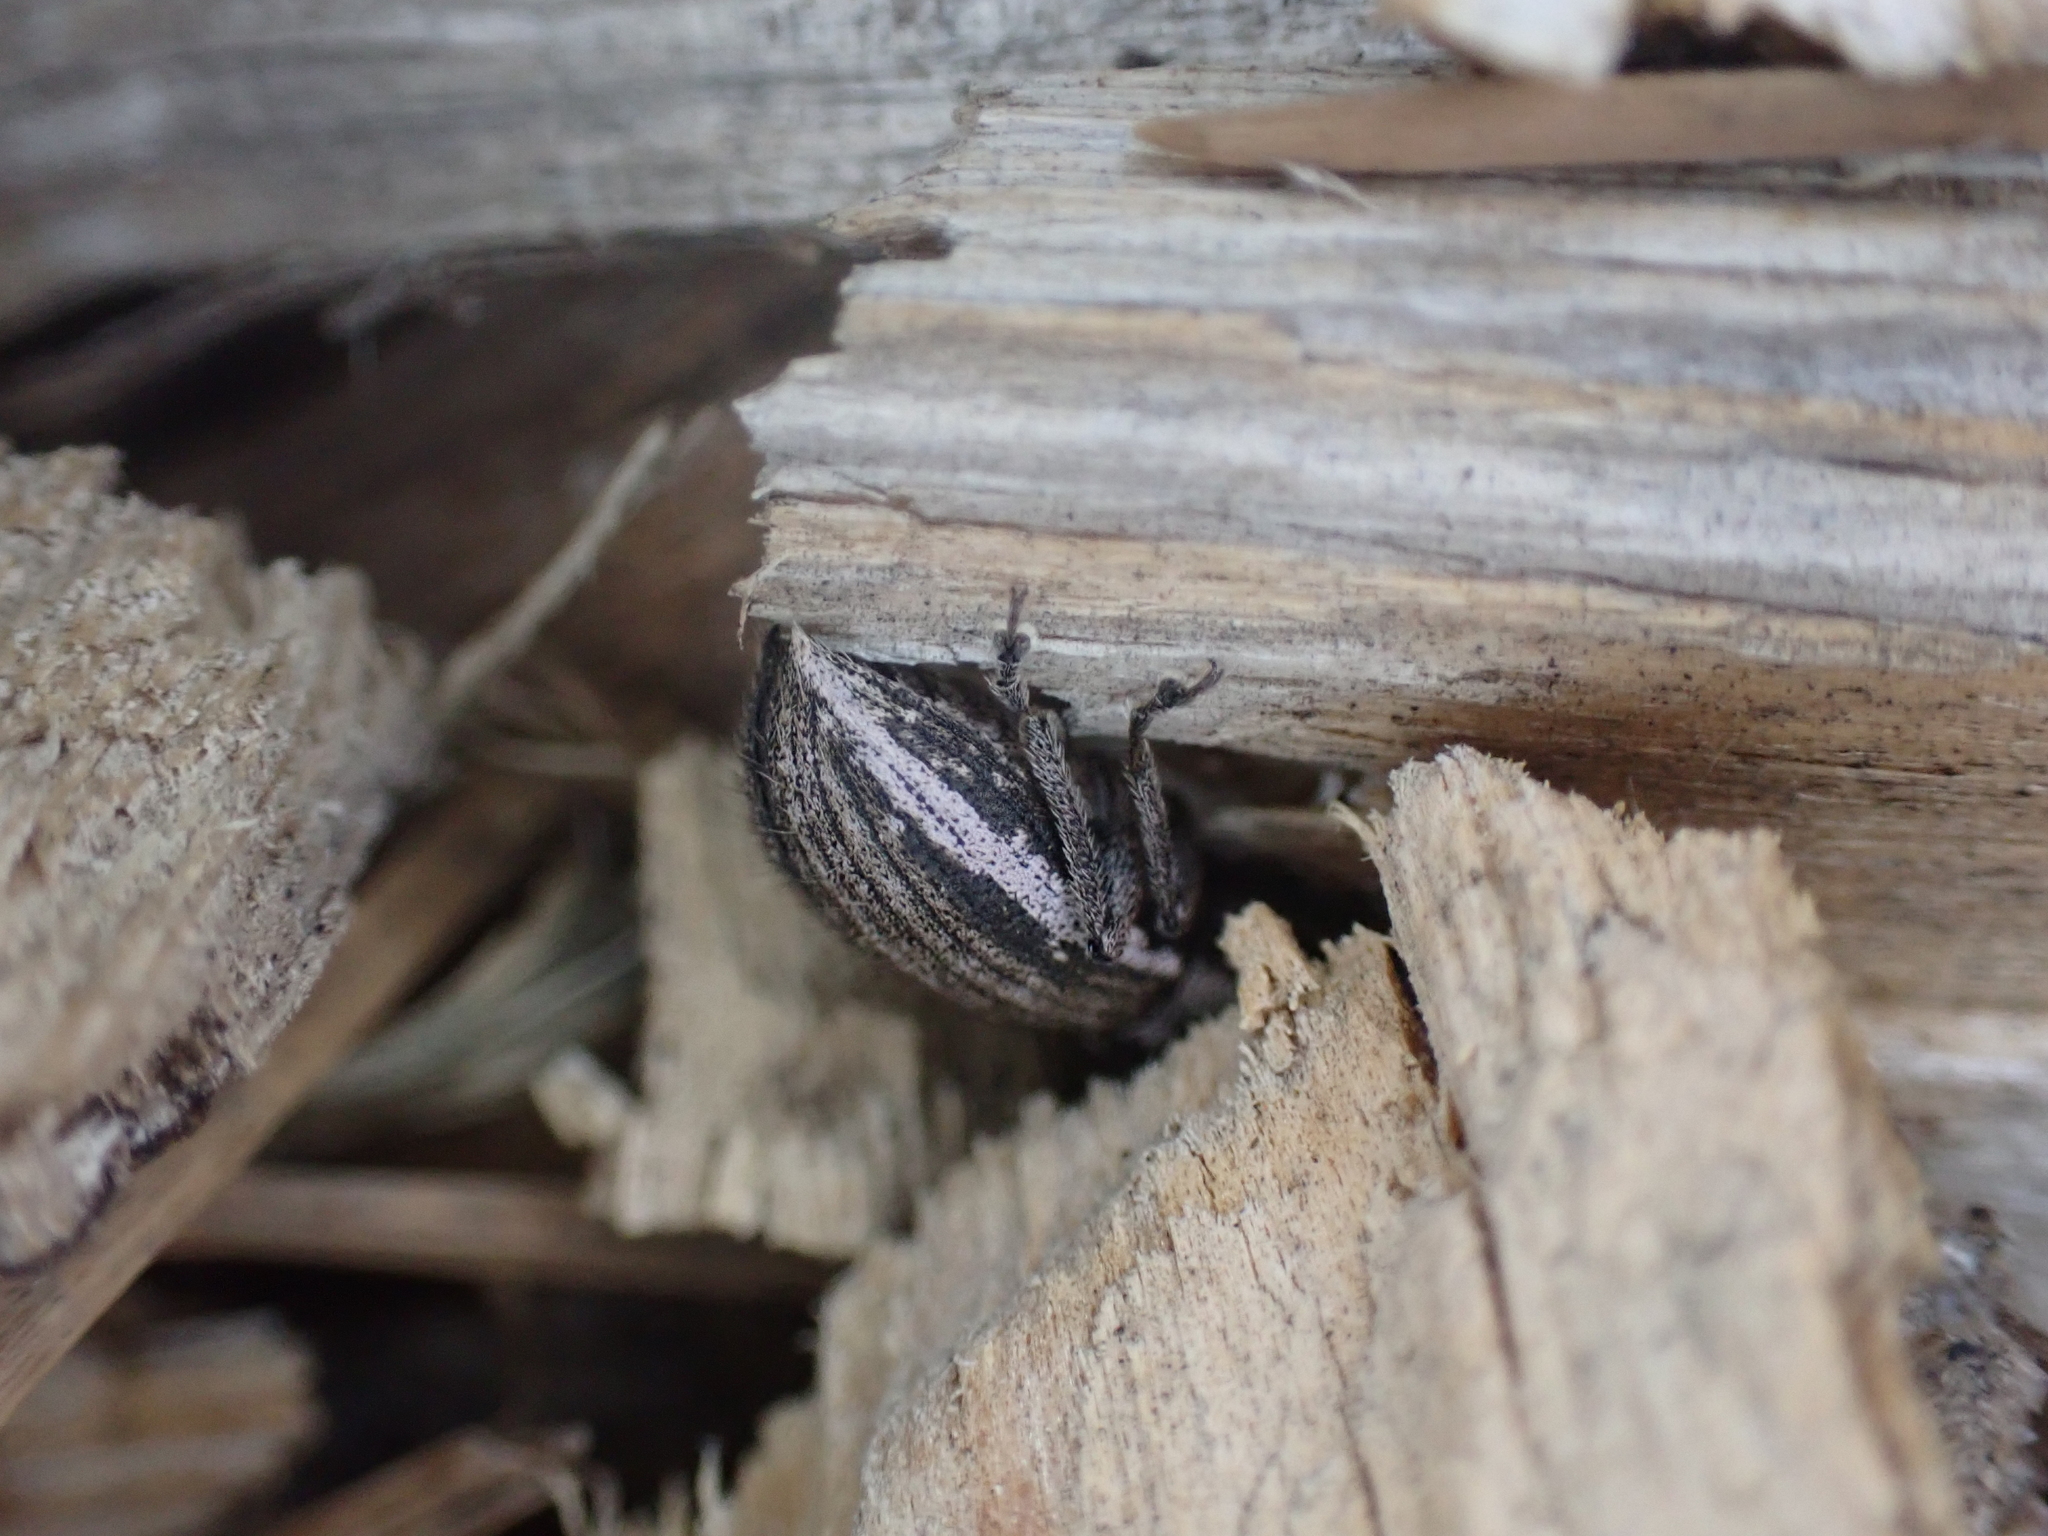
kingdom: Animalia
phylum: Arthropoda
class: Insecta
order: Coleoptera
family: Curculionidae
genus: Naupactus
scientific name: Naupactus leucoloma
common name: Whitefringed beetle
